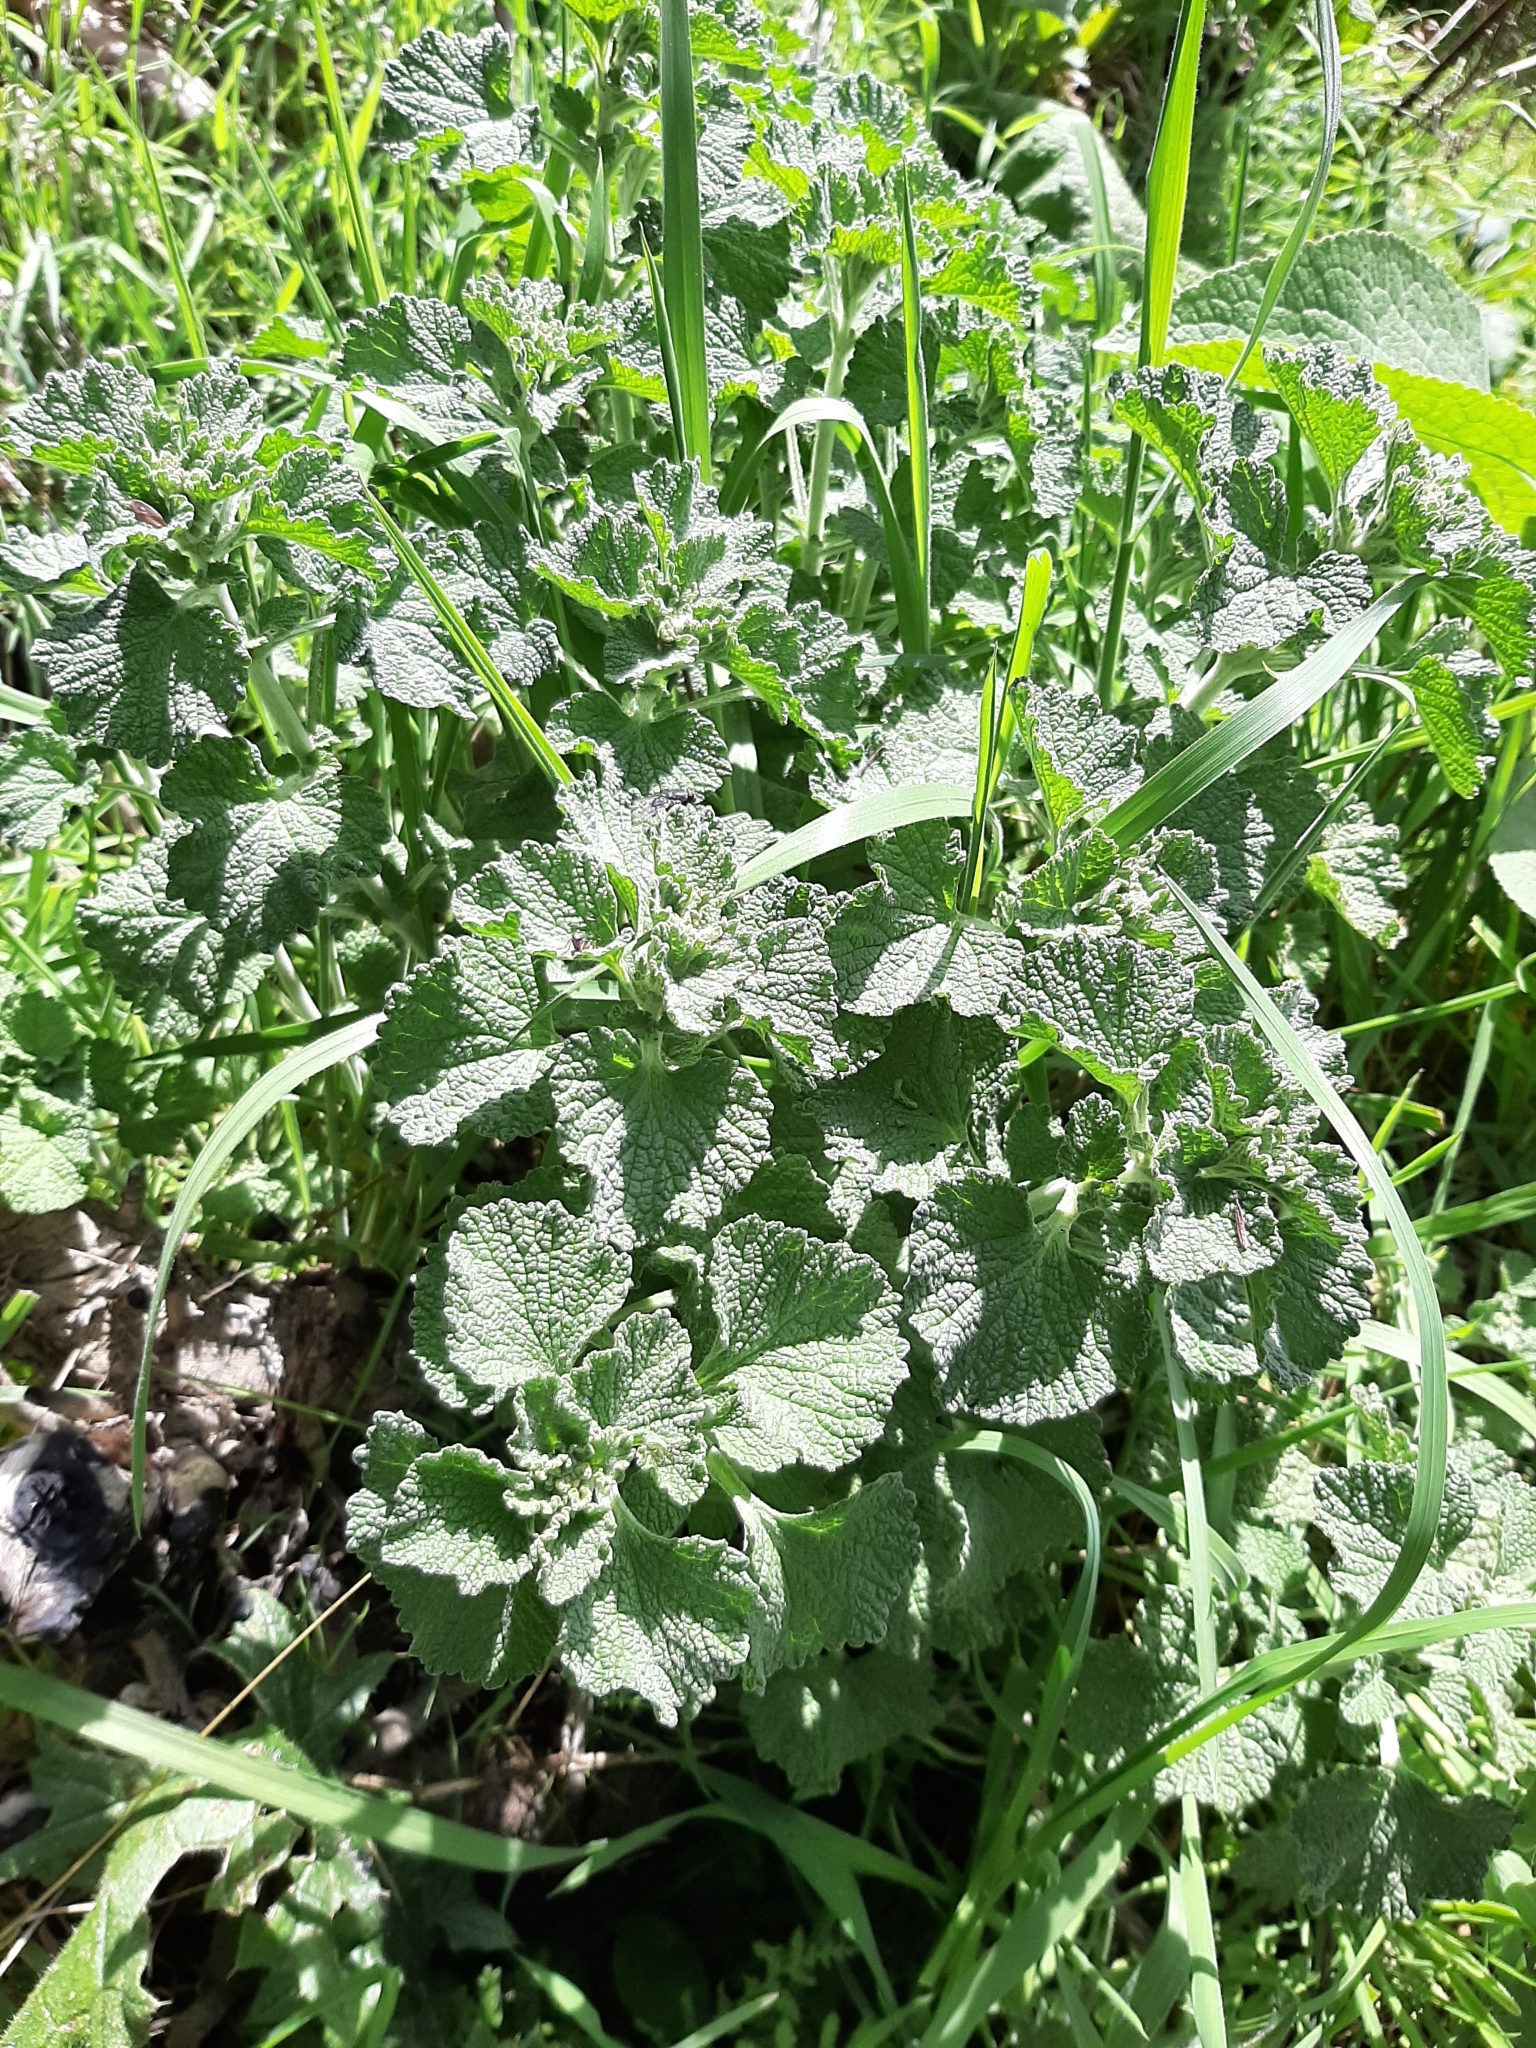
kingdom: Plantae
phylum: Tracheophyta
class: Magnoliopsida
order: Lamiales
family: Lamiaceae
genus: Marrubium
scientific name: Marrubium vulgare
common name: Horehound
